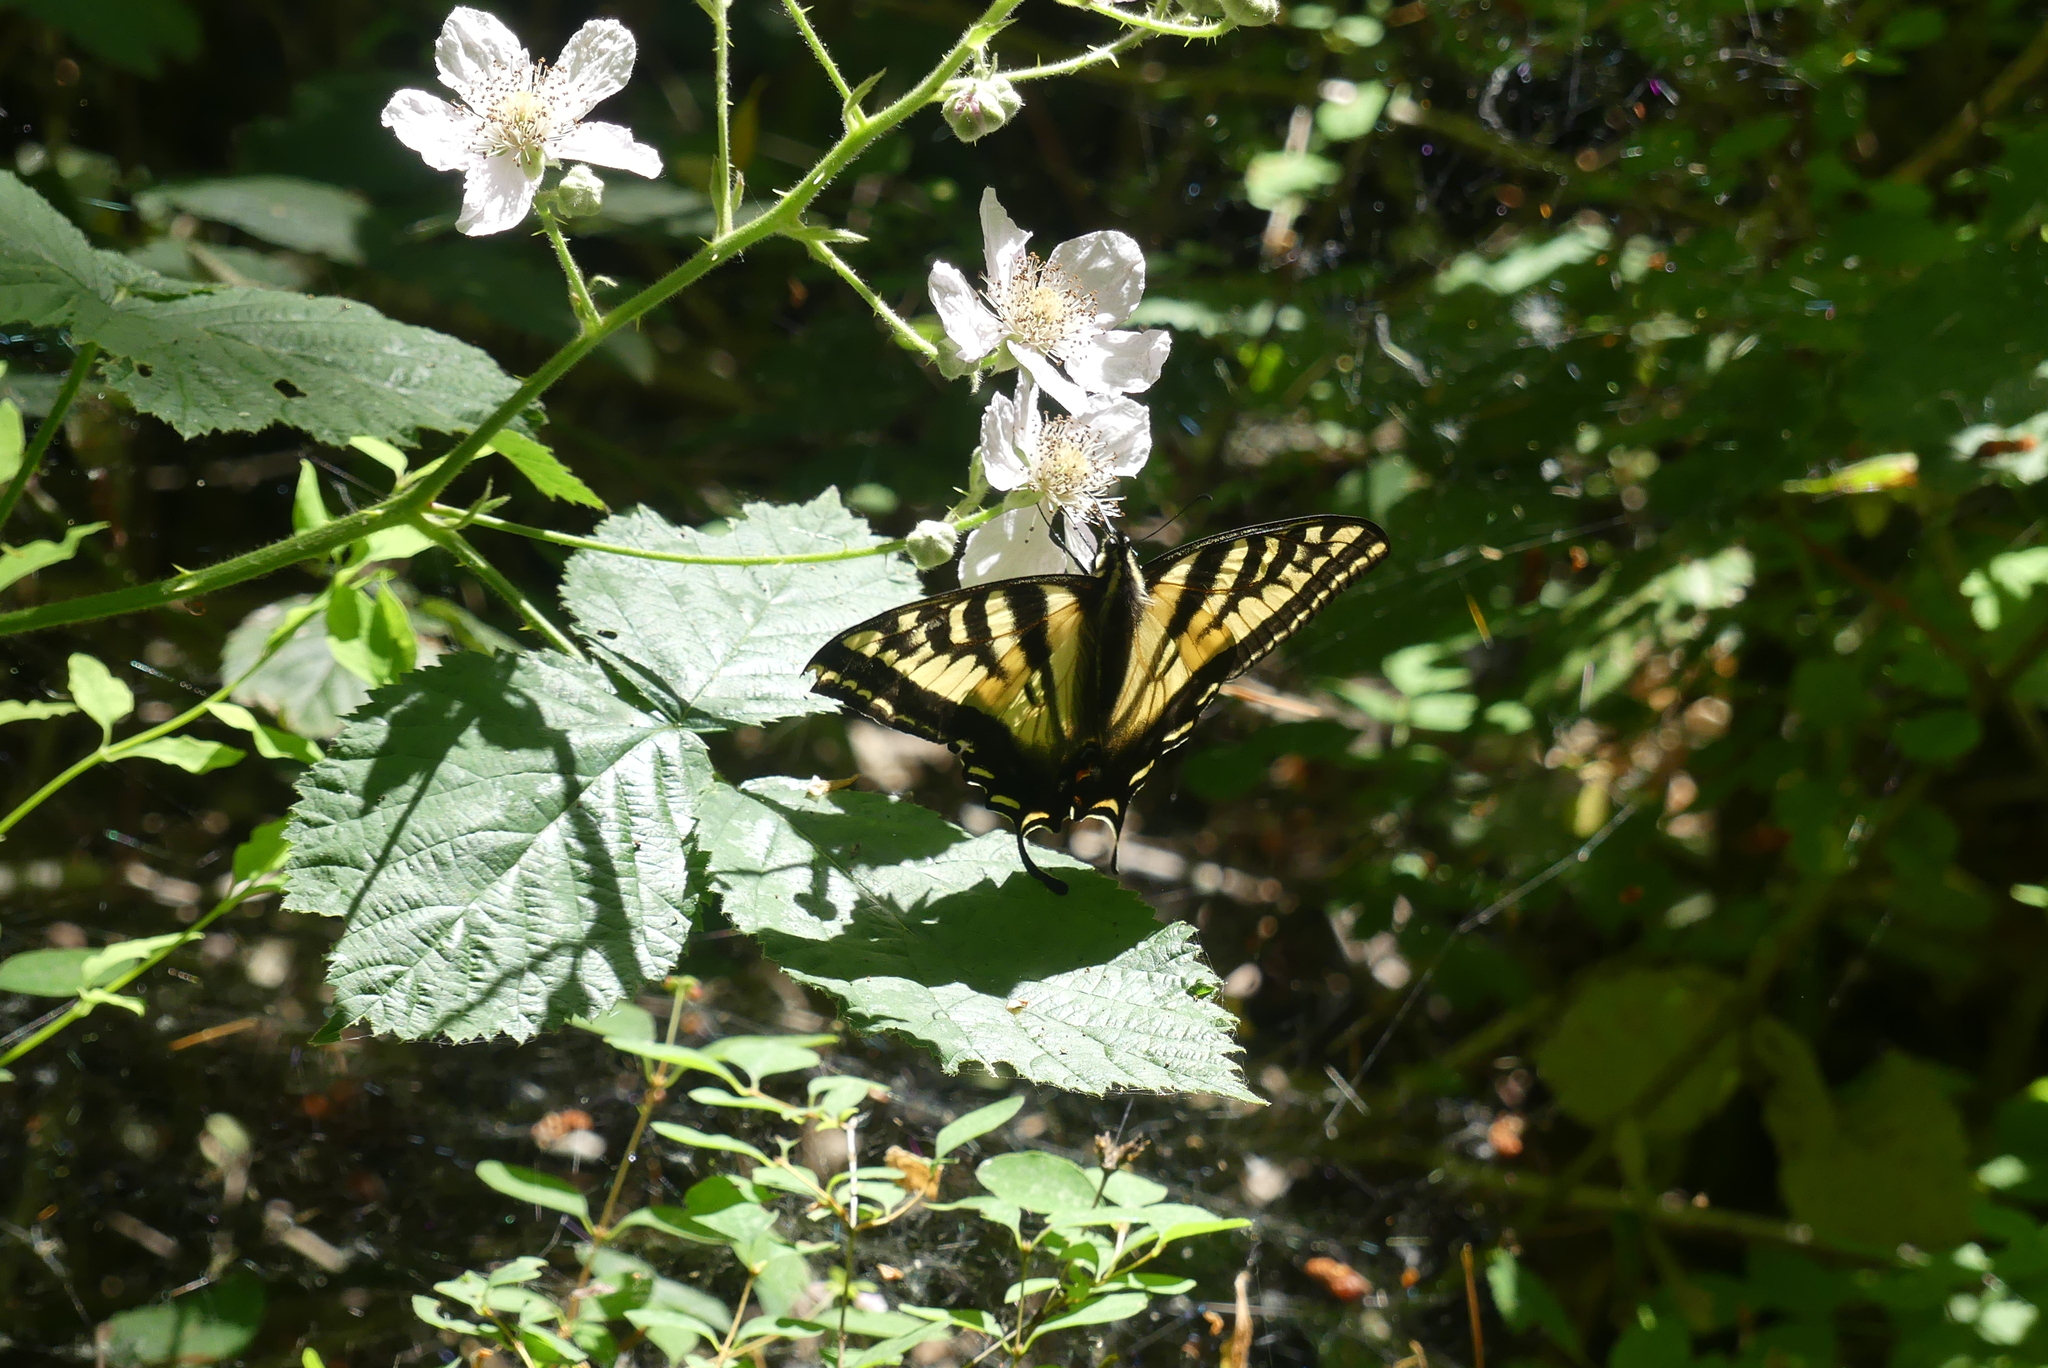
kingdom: Animalia
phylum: Arthropoda
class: Insecta
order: Lepidoptera
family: Papilionidae
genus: Papilio
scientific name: Papilio rutulus
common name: Western tiger swallowtail
